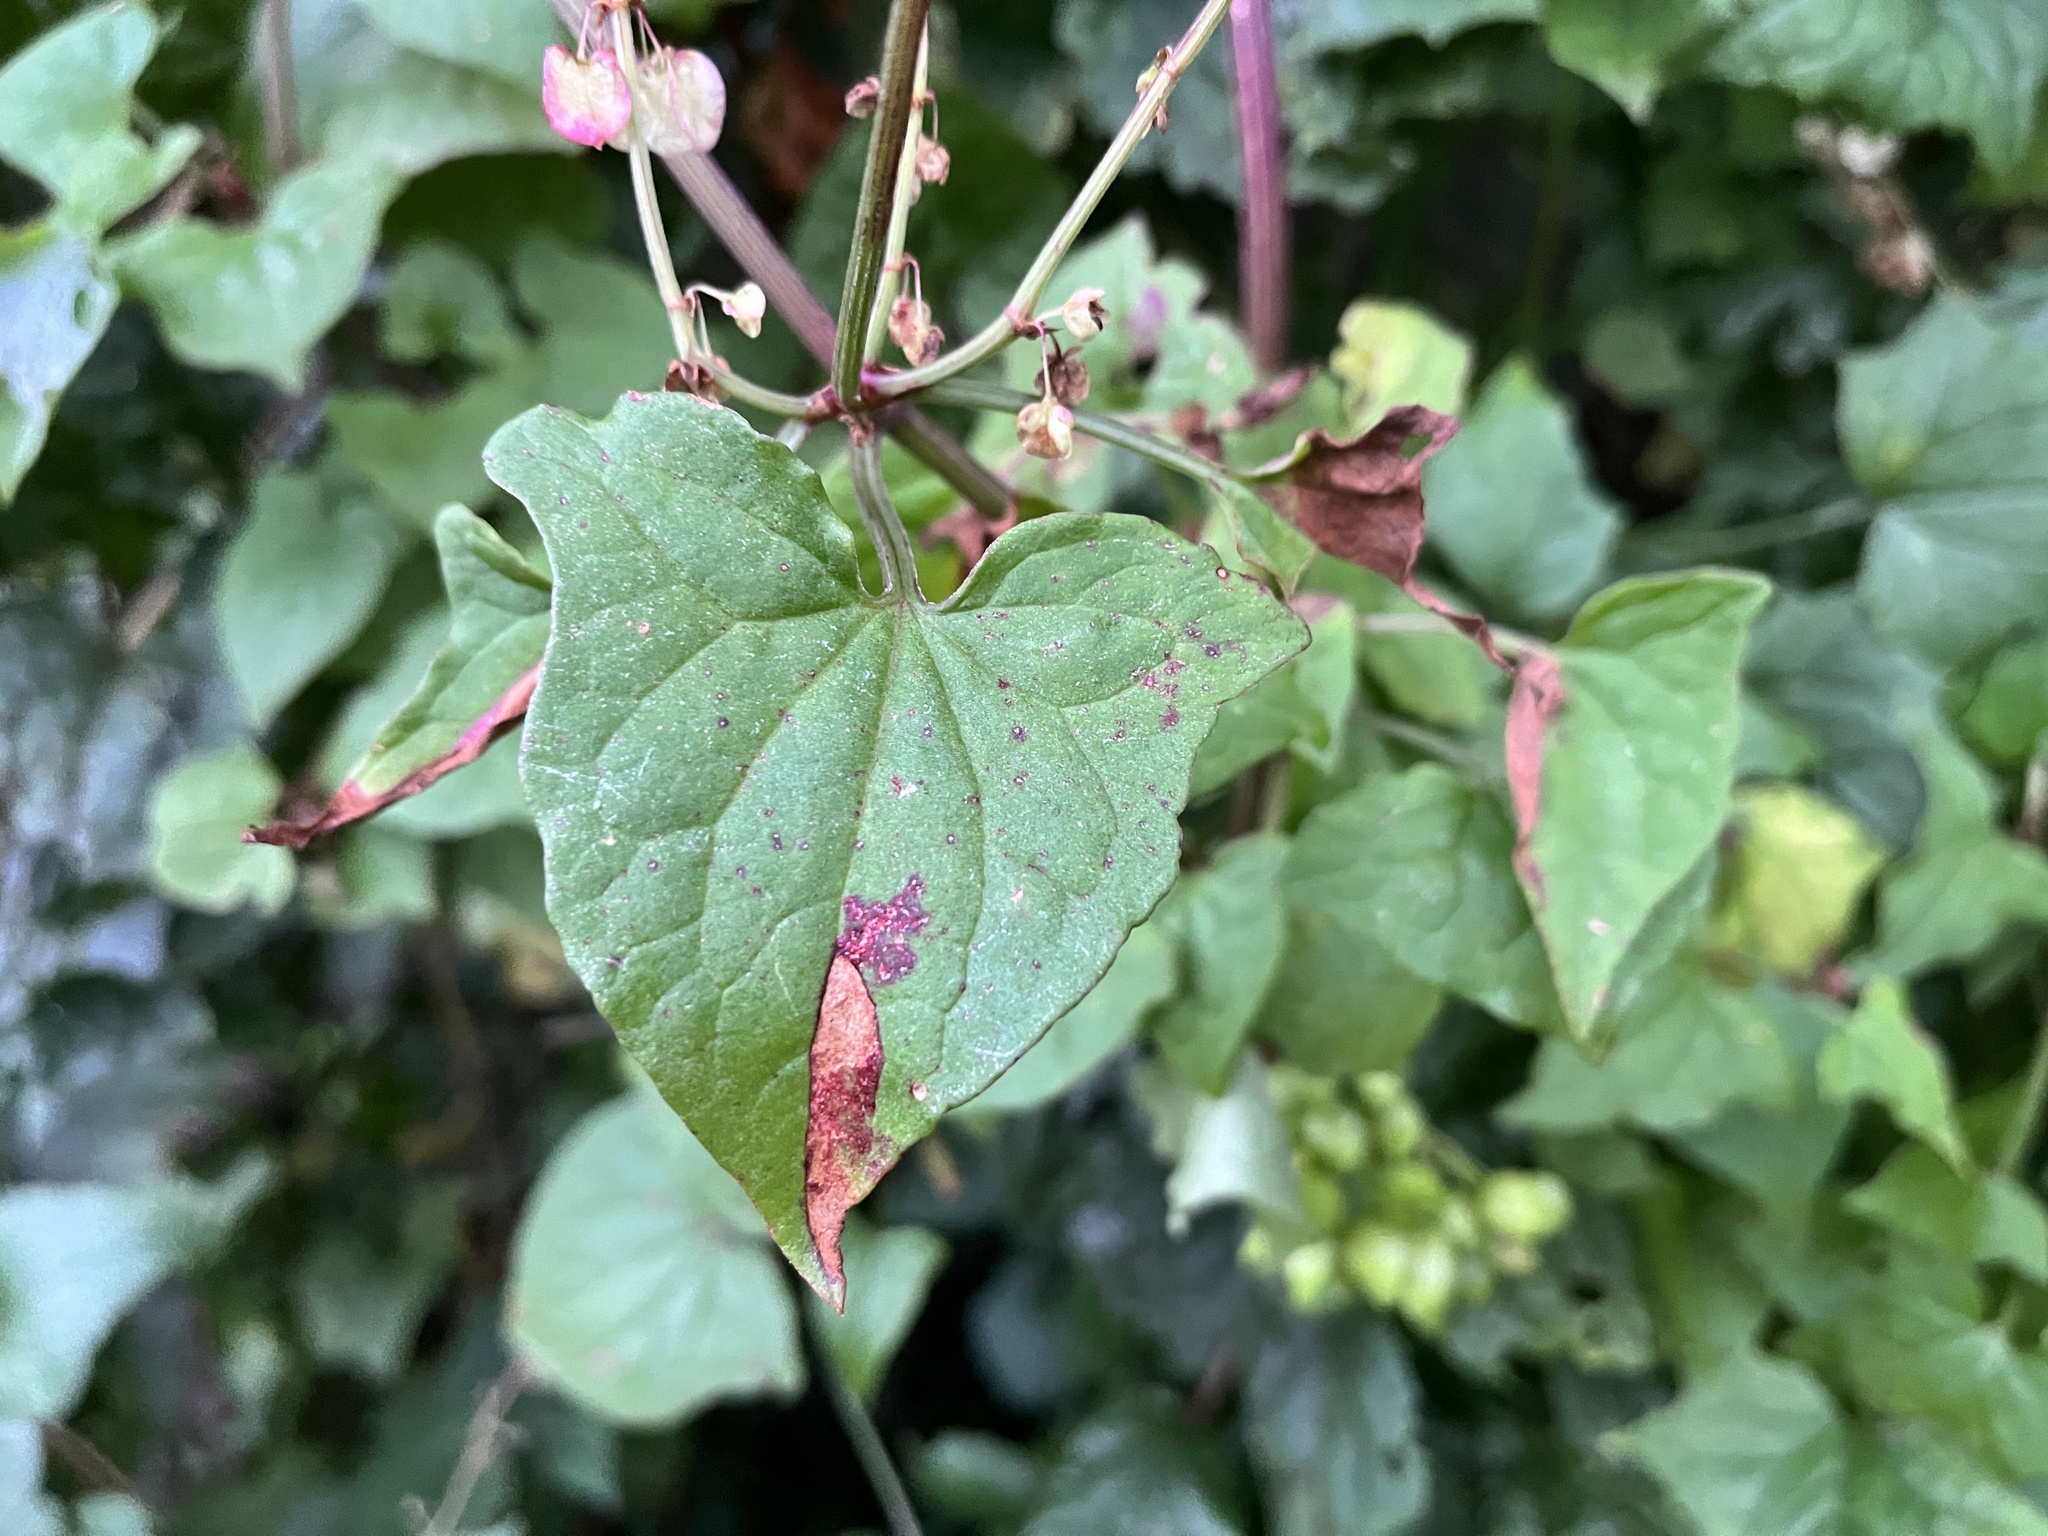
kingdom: Plantae
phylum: Tracheophyta
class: Magnoliopsida
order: Caryophyllales
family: Polygonaceae
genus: Rumex
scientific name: Rumex sagittatus
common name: Climbing dock
